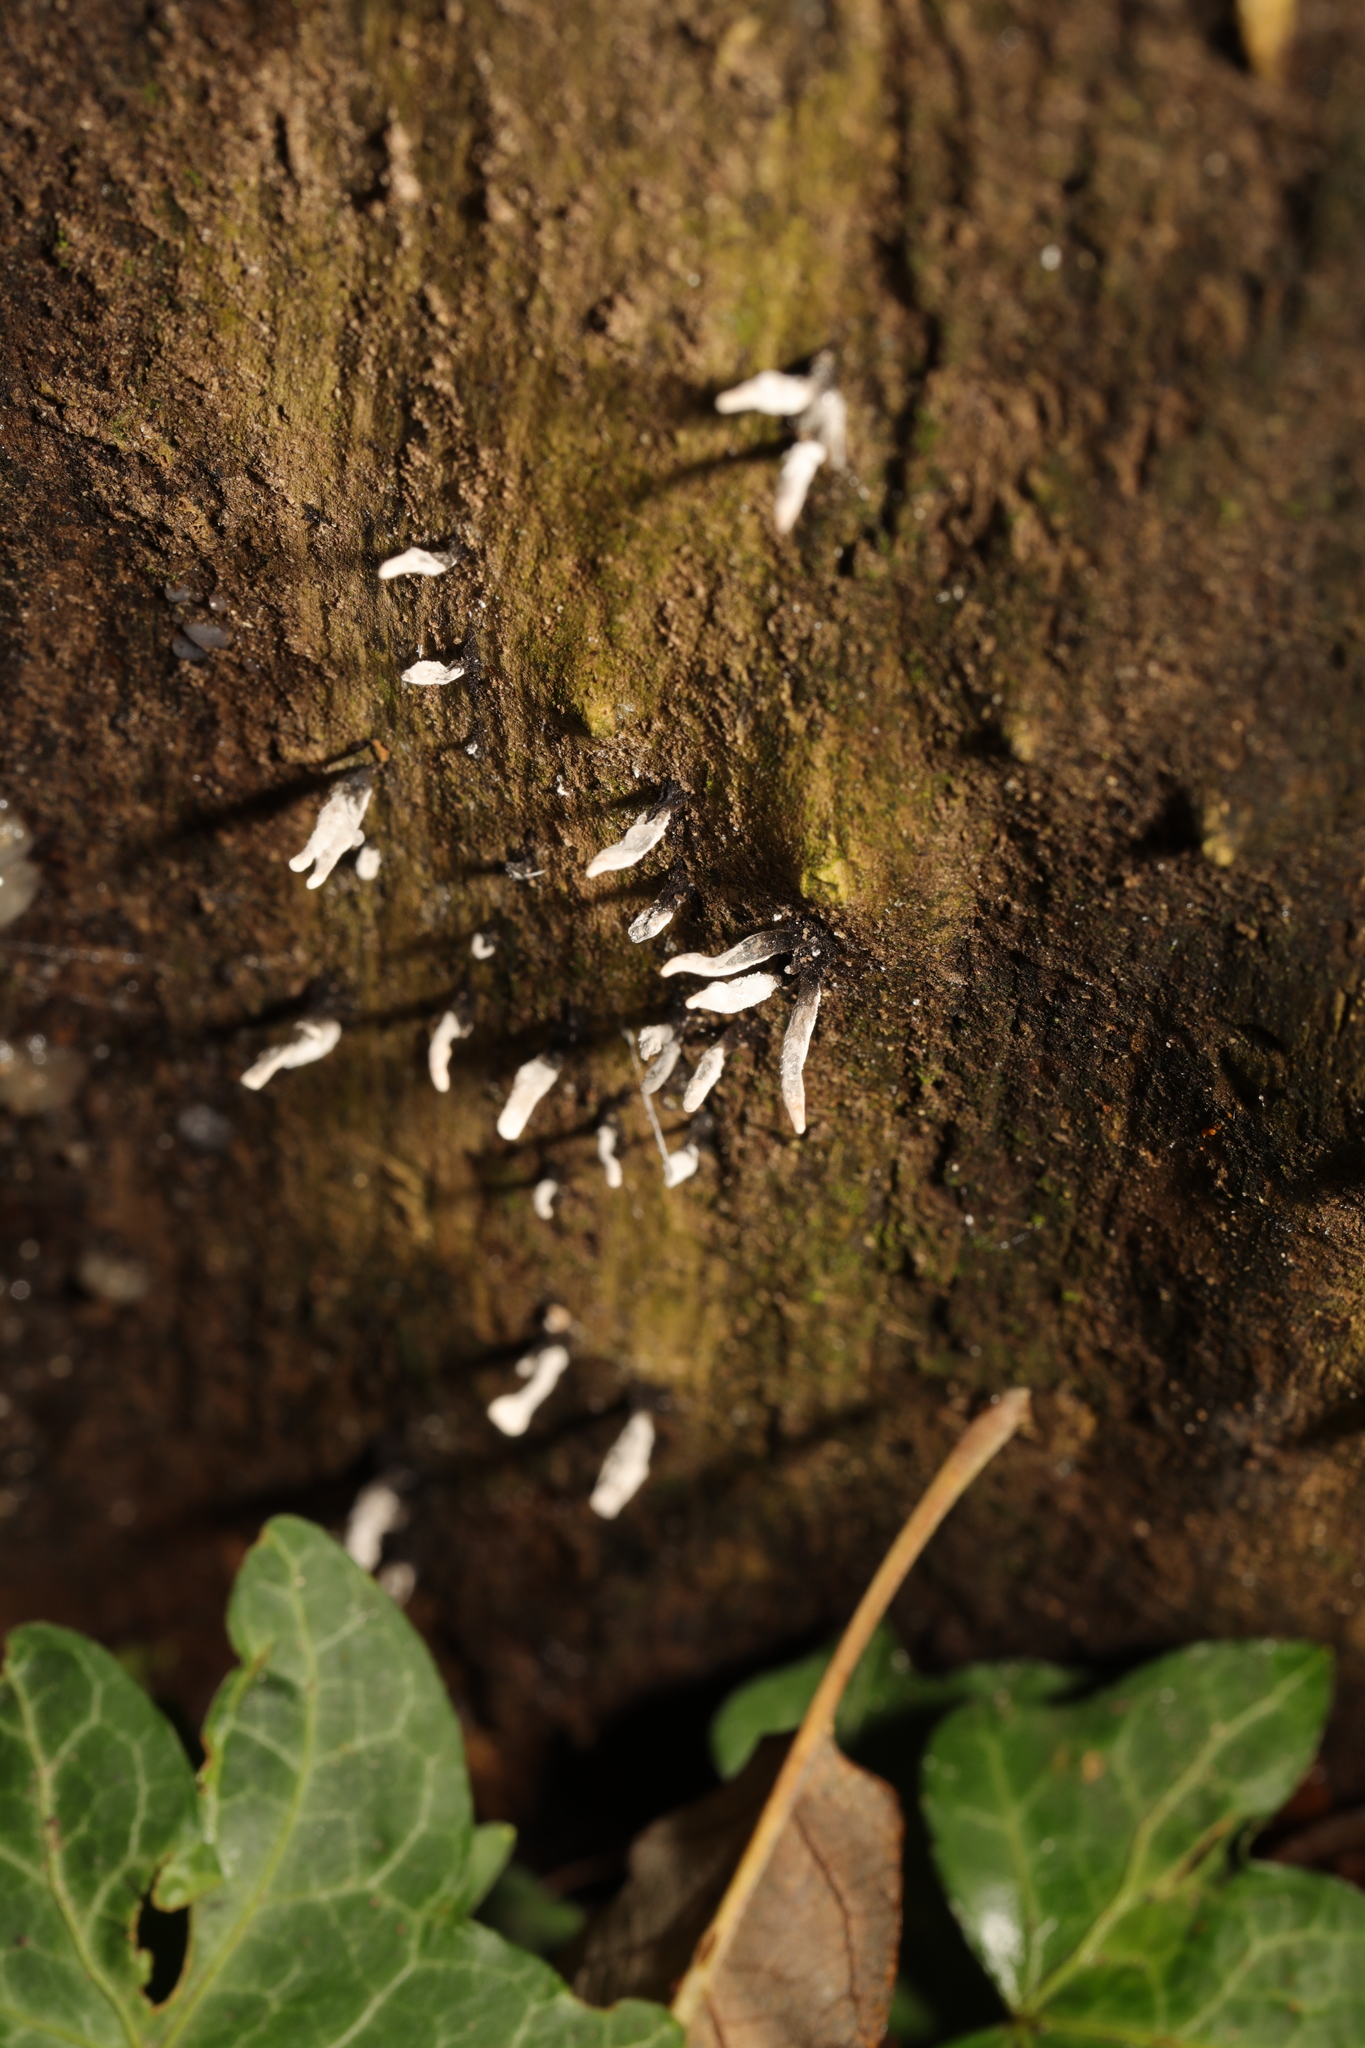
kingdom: Fungi
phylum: Ascomycota
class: Sordariomycetes
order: Xylariales
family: Xylariaceae
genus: Xylaria
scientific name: Xylaria hypoxylon
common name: Candle-snuff fungus
